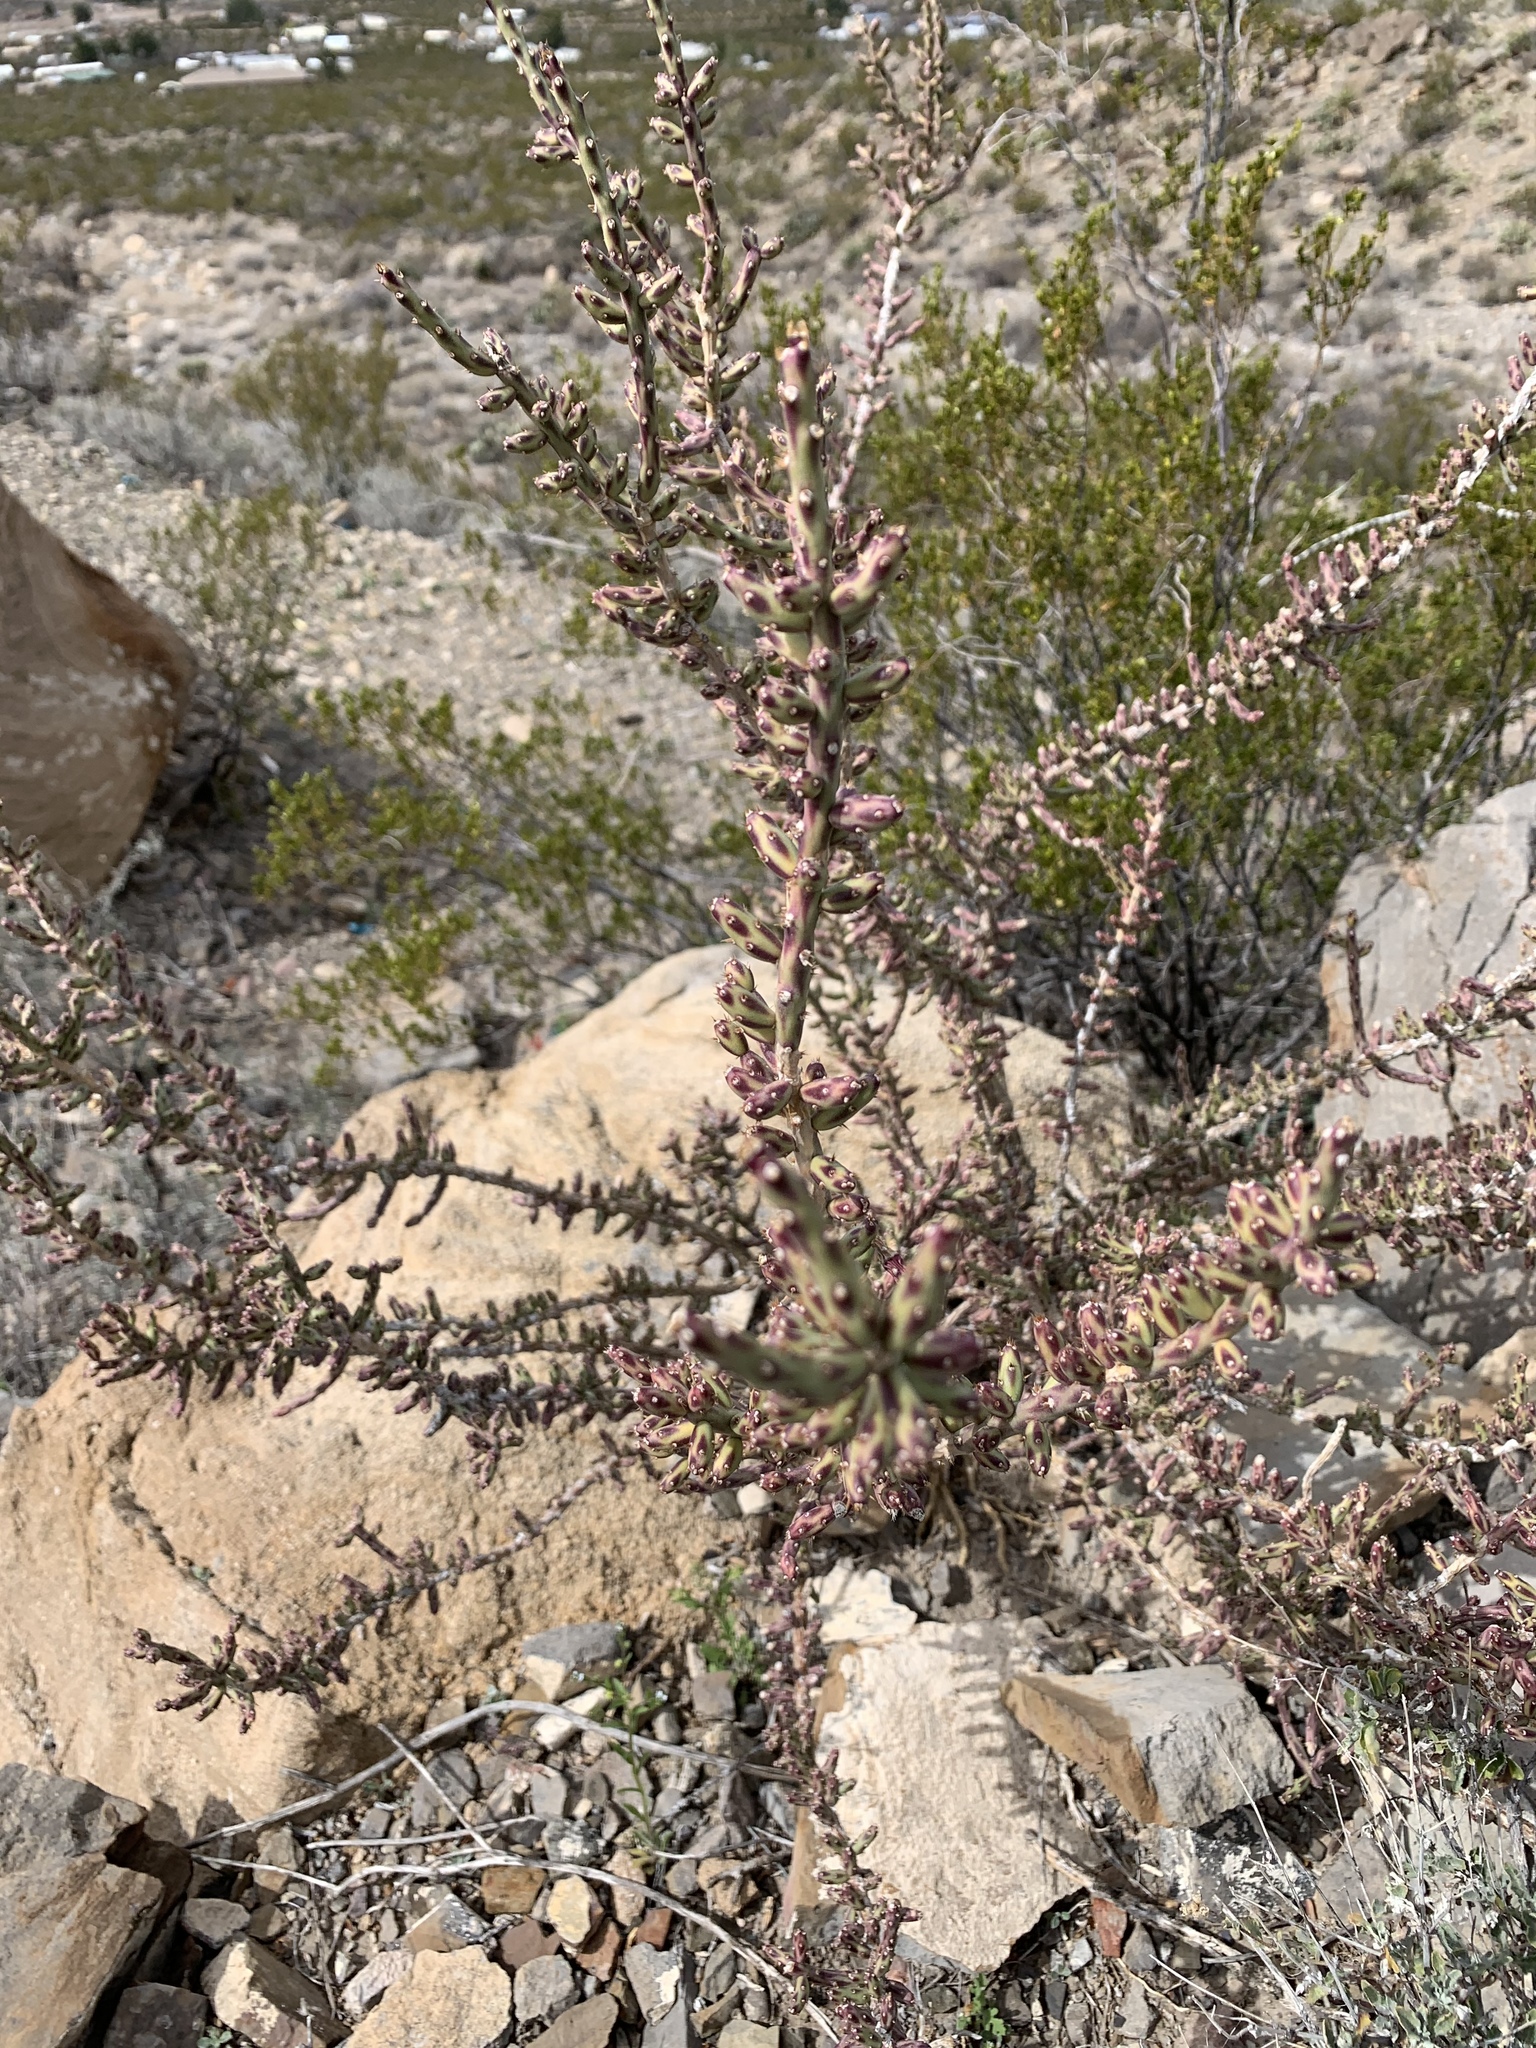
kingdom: Plantae
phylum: Tracheophyta
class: Magnoliopsida
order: Caryophyllales
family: Cactaceae
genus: Cylindropuntia
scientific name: Cylindropuntia leptocaulis
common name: Christmas cactus
